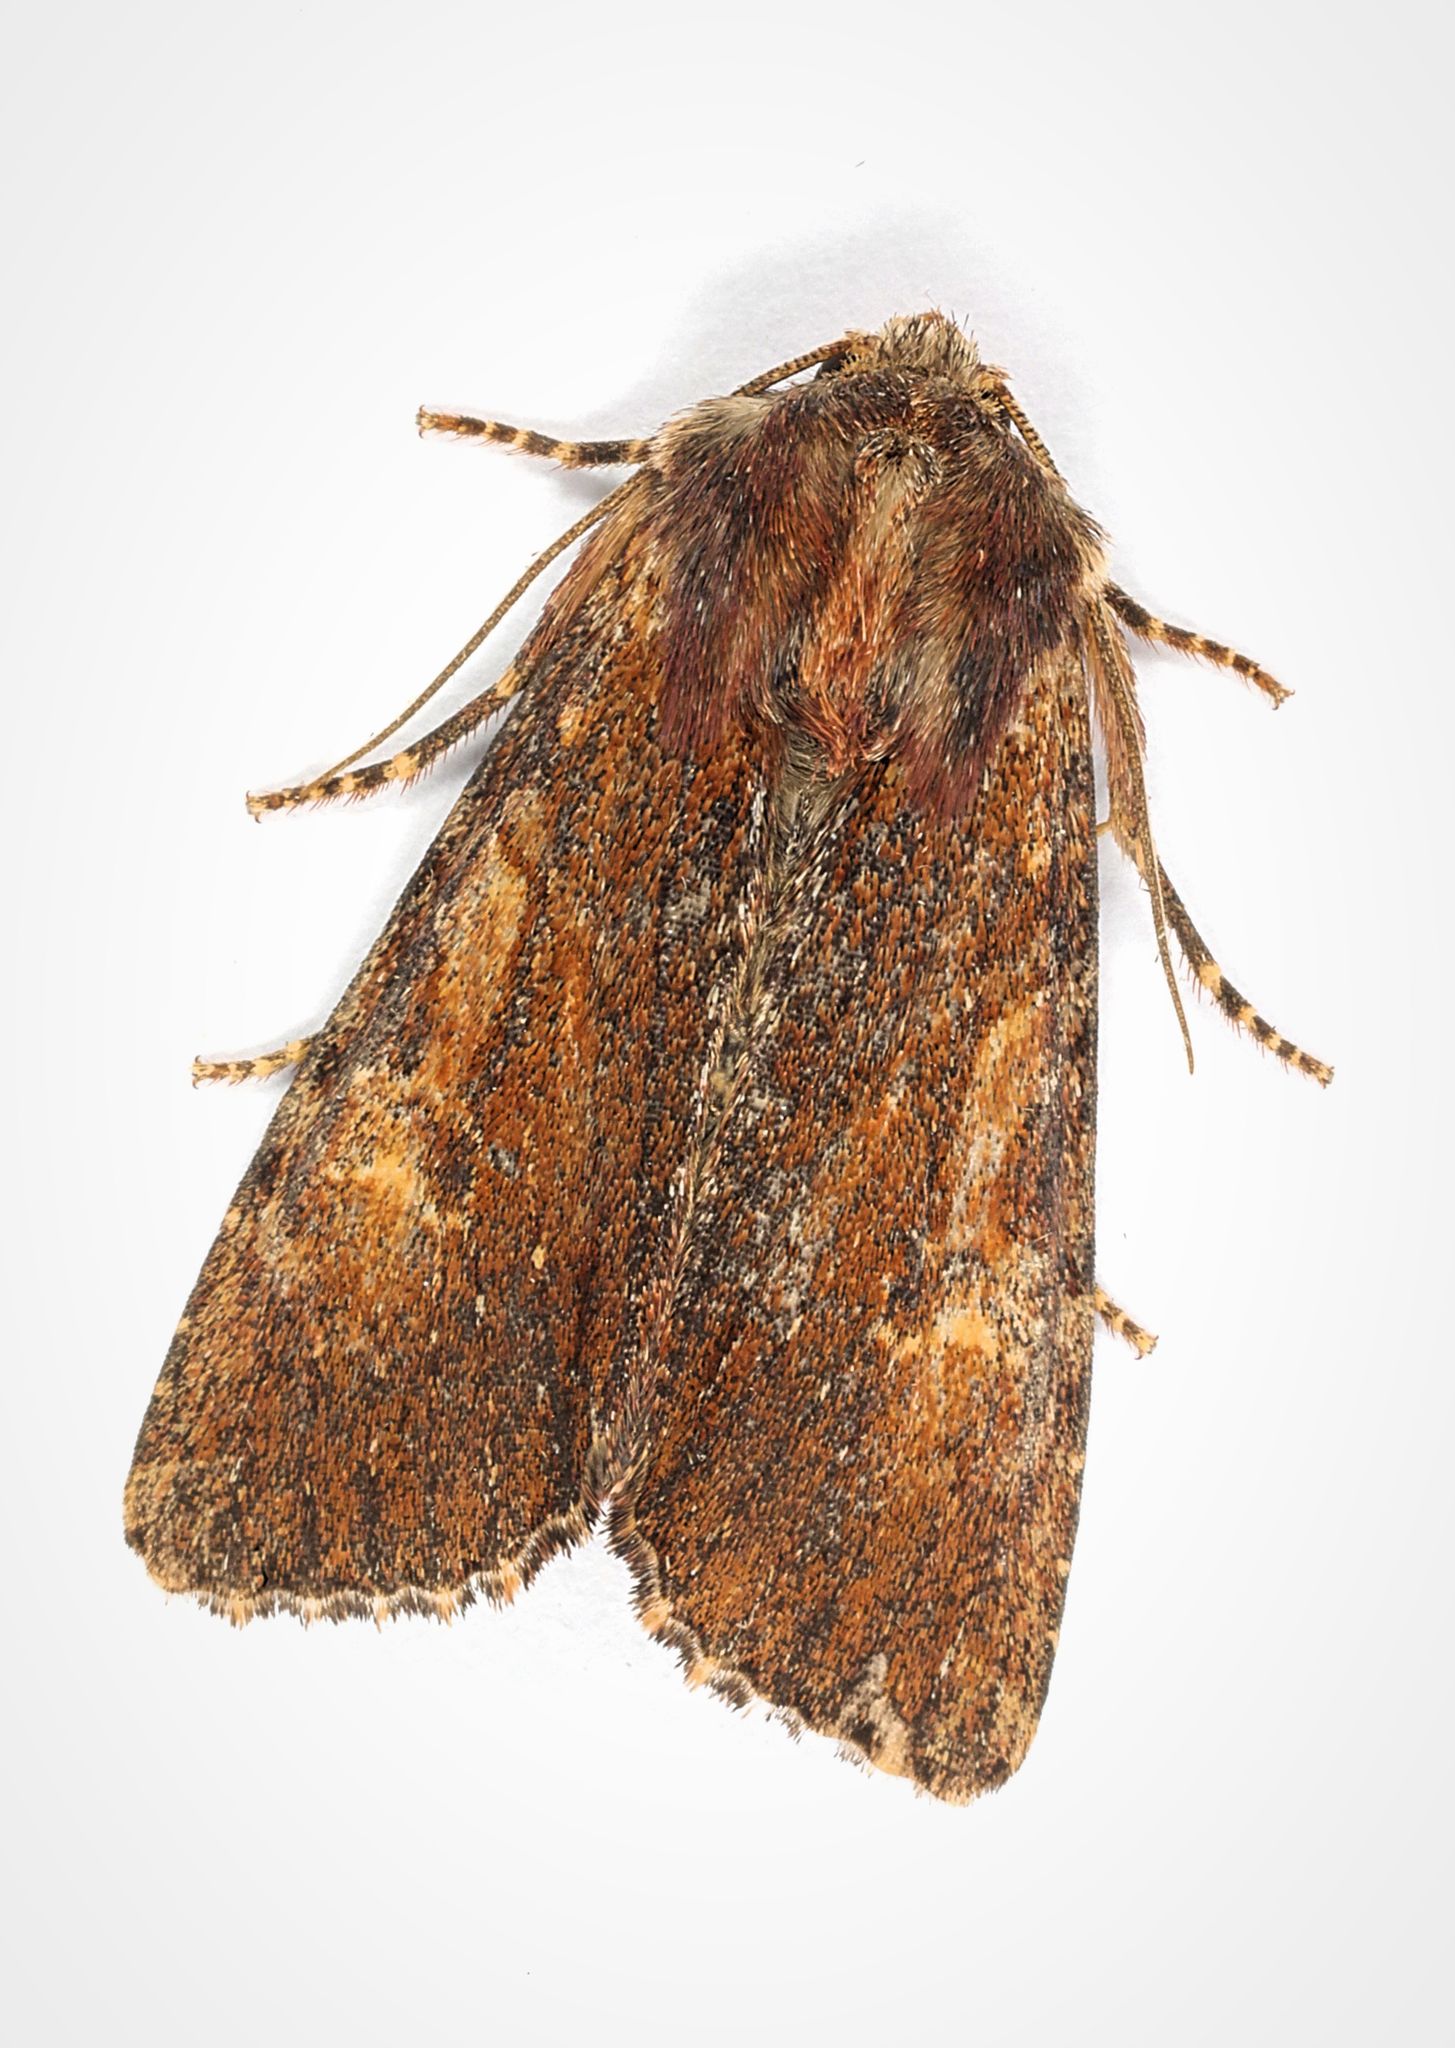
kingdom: Animalia
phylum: Arthropoda
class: Insecta
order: Lepidoptera
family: Noctuidae
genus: Apamea
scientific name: Apamea crenata
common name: Clouded-bordered brindle
